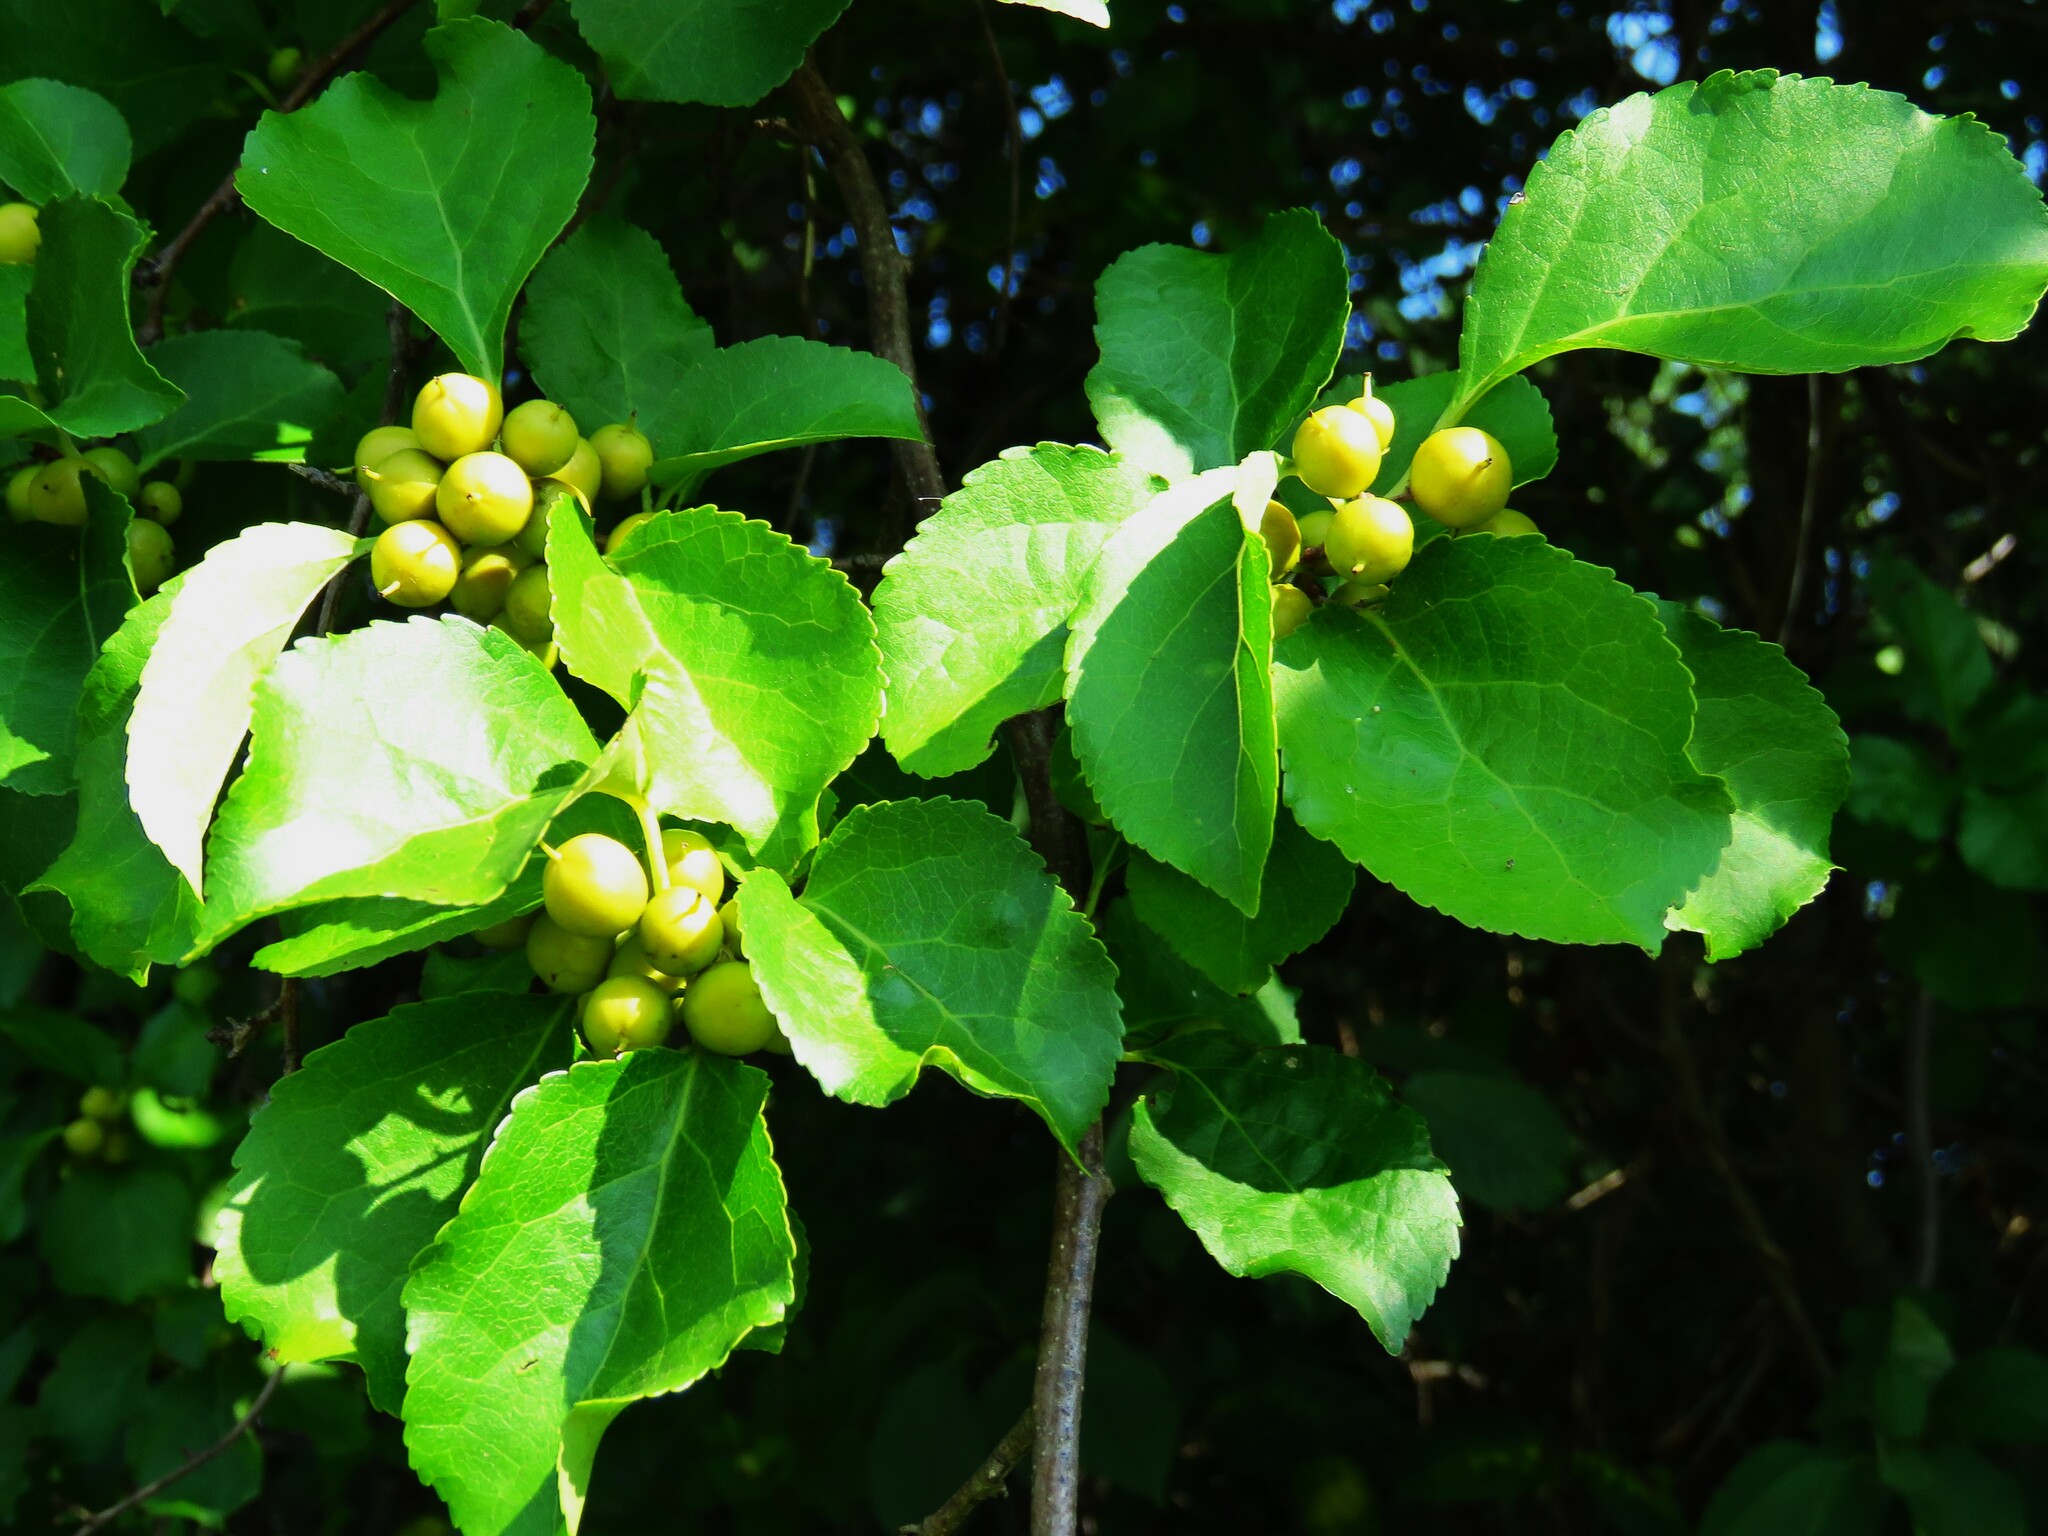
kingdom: Plantae
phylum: Tracheophyta
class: Magnoliopsida
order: Celastrales
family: Celastraceae
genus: Celastrus
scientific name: Celastrus orbiculatus
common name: Oriental bittersweet
